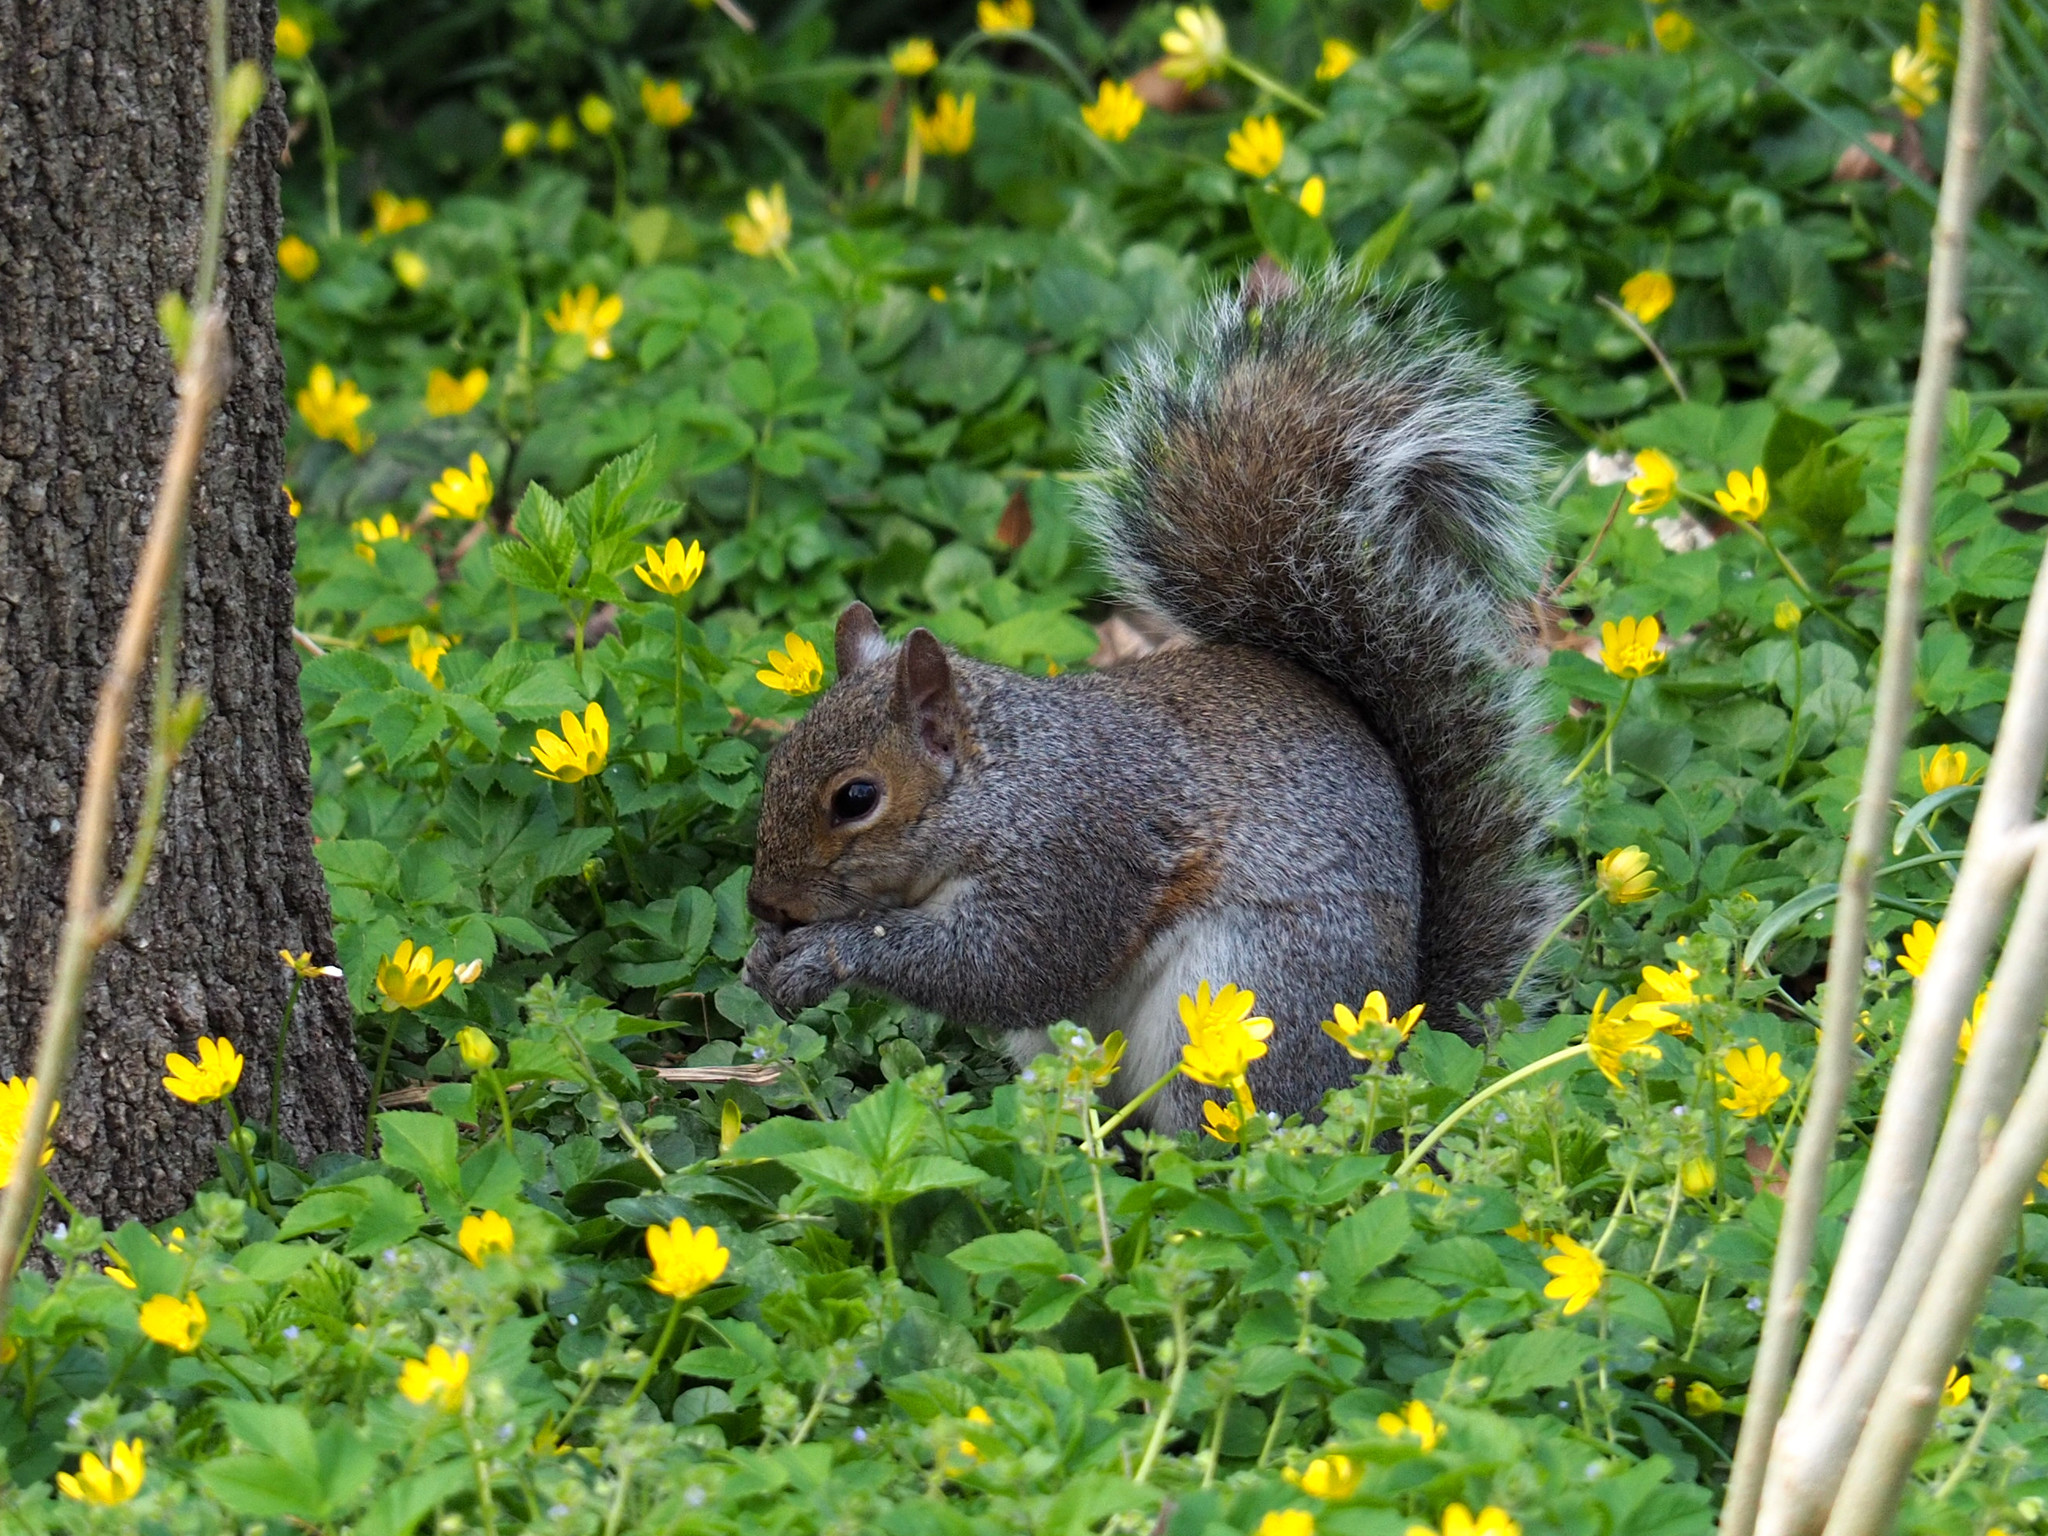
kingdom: Animalia
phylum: Chordata
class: Mammalia
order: Rodentia
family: Sciuridae
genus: Sciurus
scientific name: Sciurus carolinensis
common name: Eastern gray squirrel
